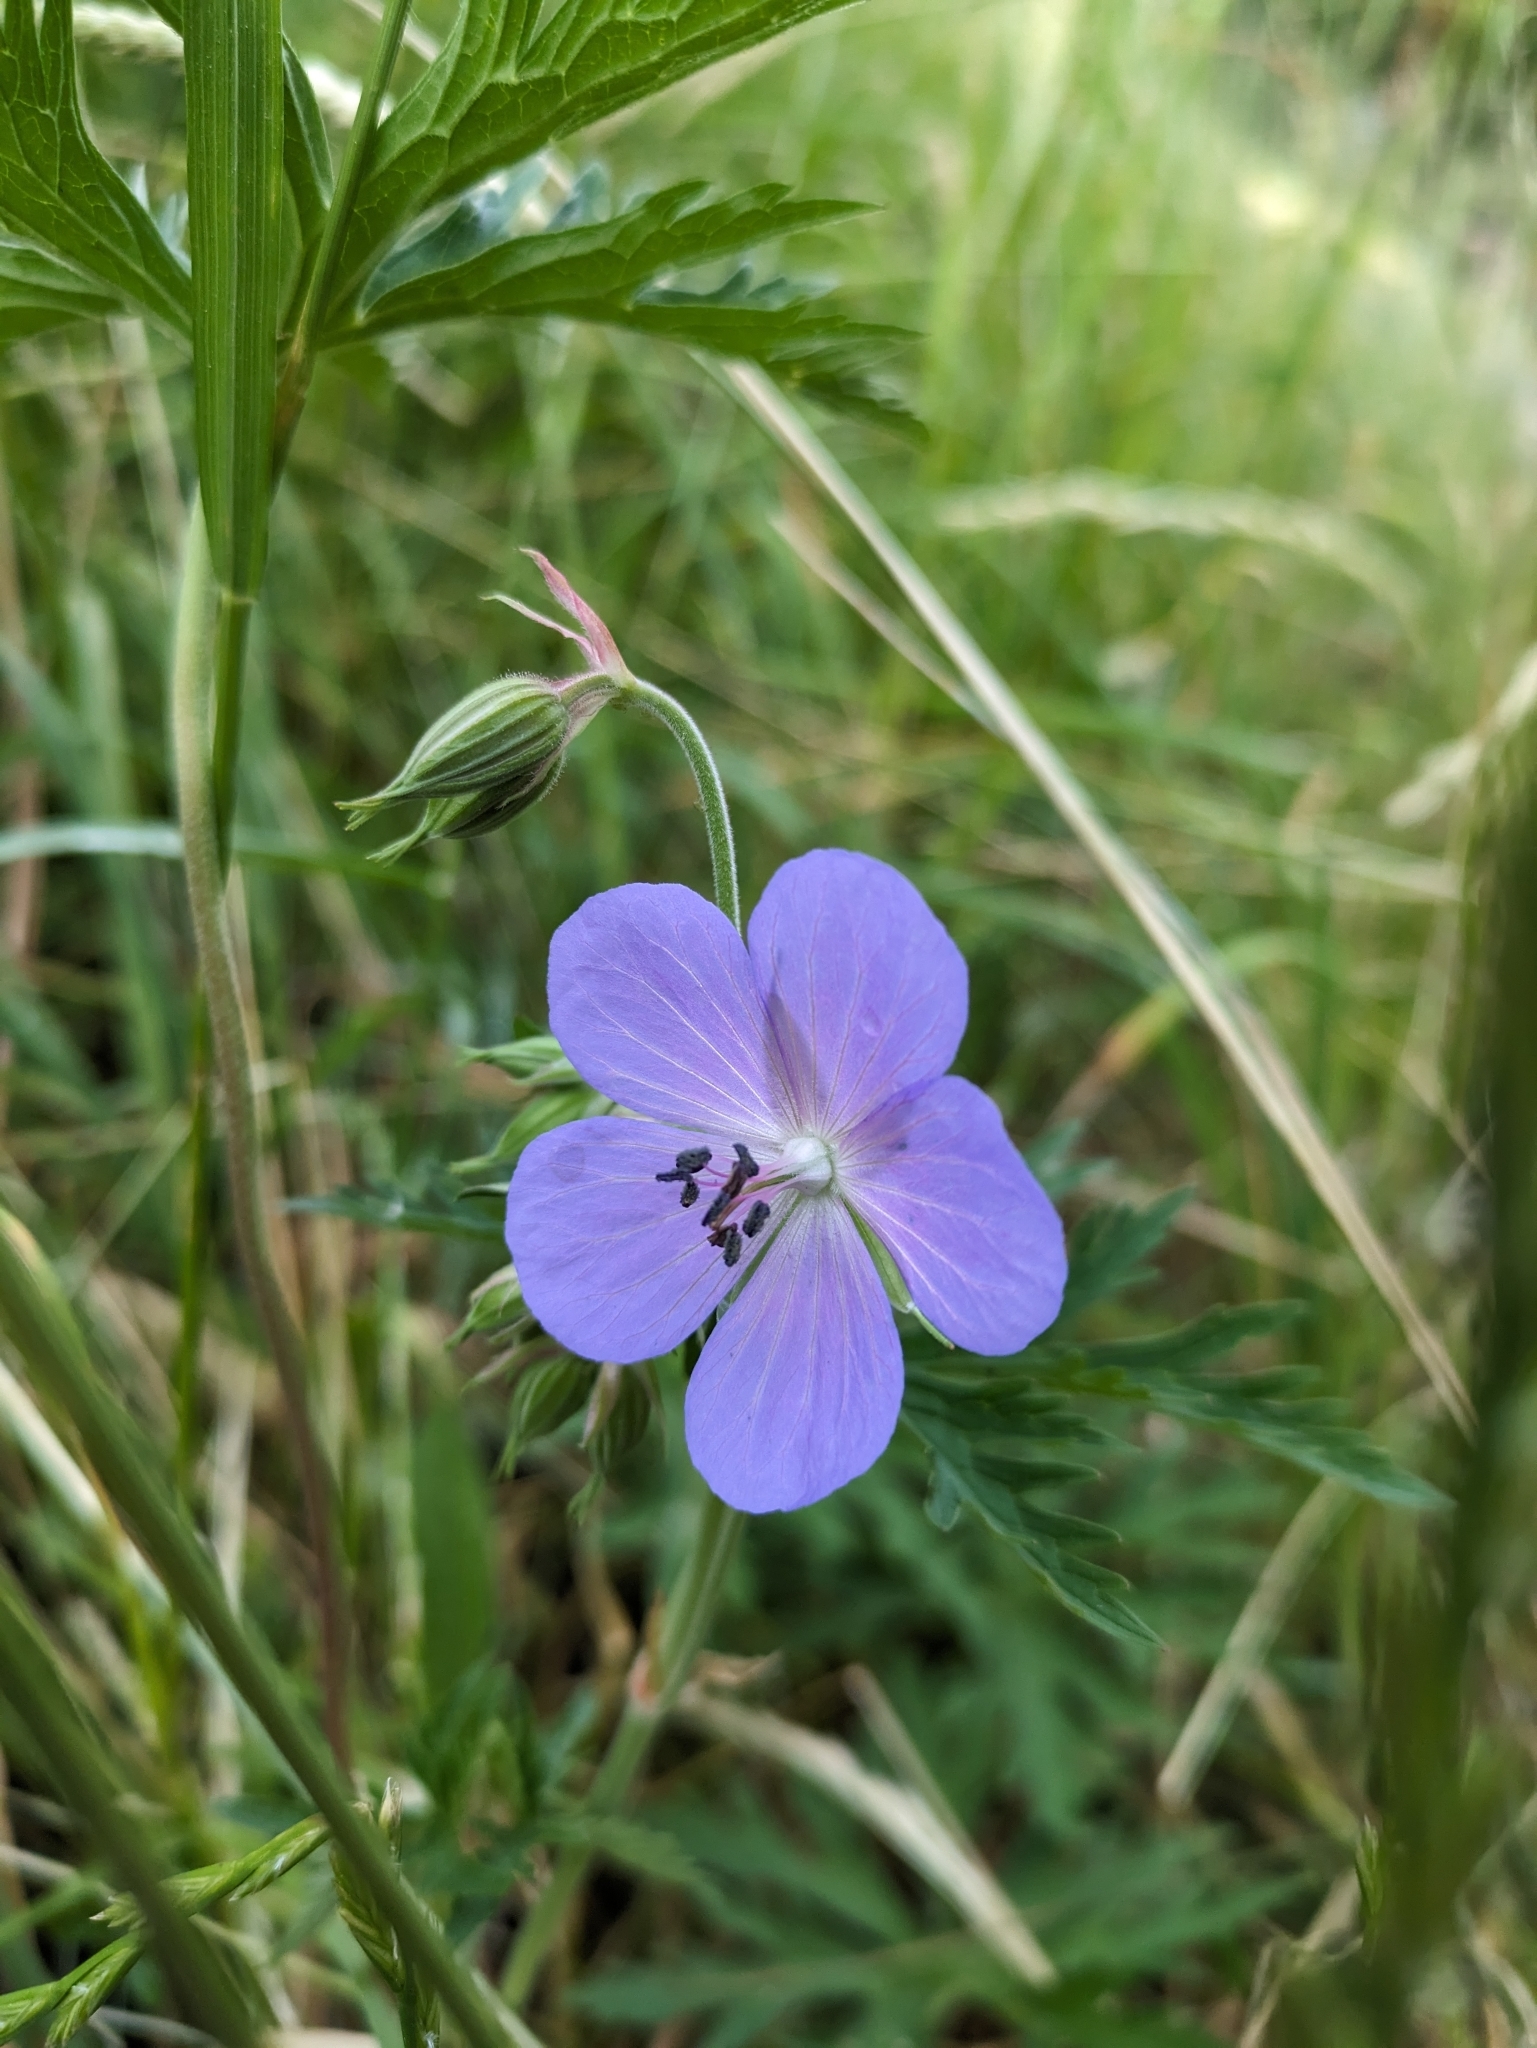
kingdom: Plantae
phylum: Tracheophyta
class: Magnoliopsida
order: Geraniales
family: Geraniaceae
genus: Geranium
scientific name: Geranium pratense
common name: Meadow crane's-bill
